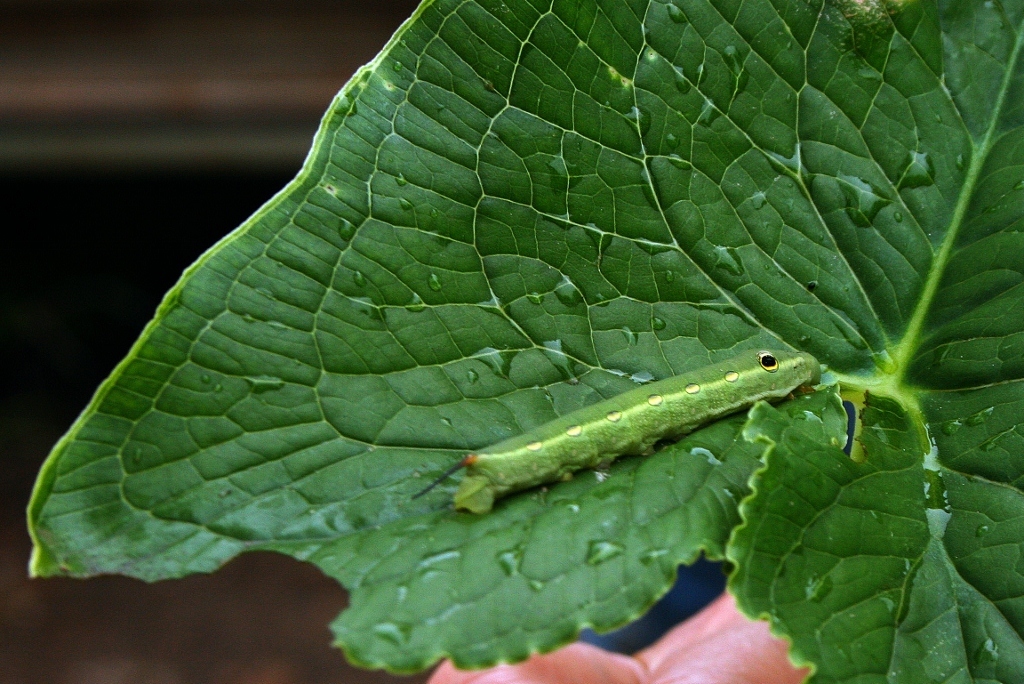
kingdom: Animalia
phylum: Arthropoda
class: Insecta
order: Lepidoptera
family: Sphingidae
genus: Theretra
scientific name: Theretra cajus
